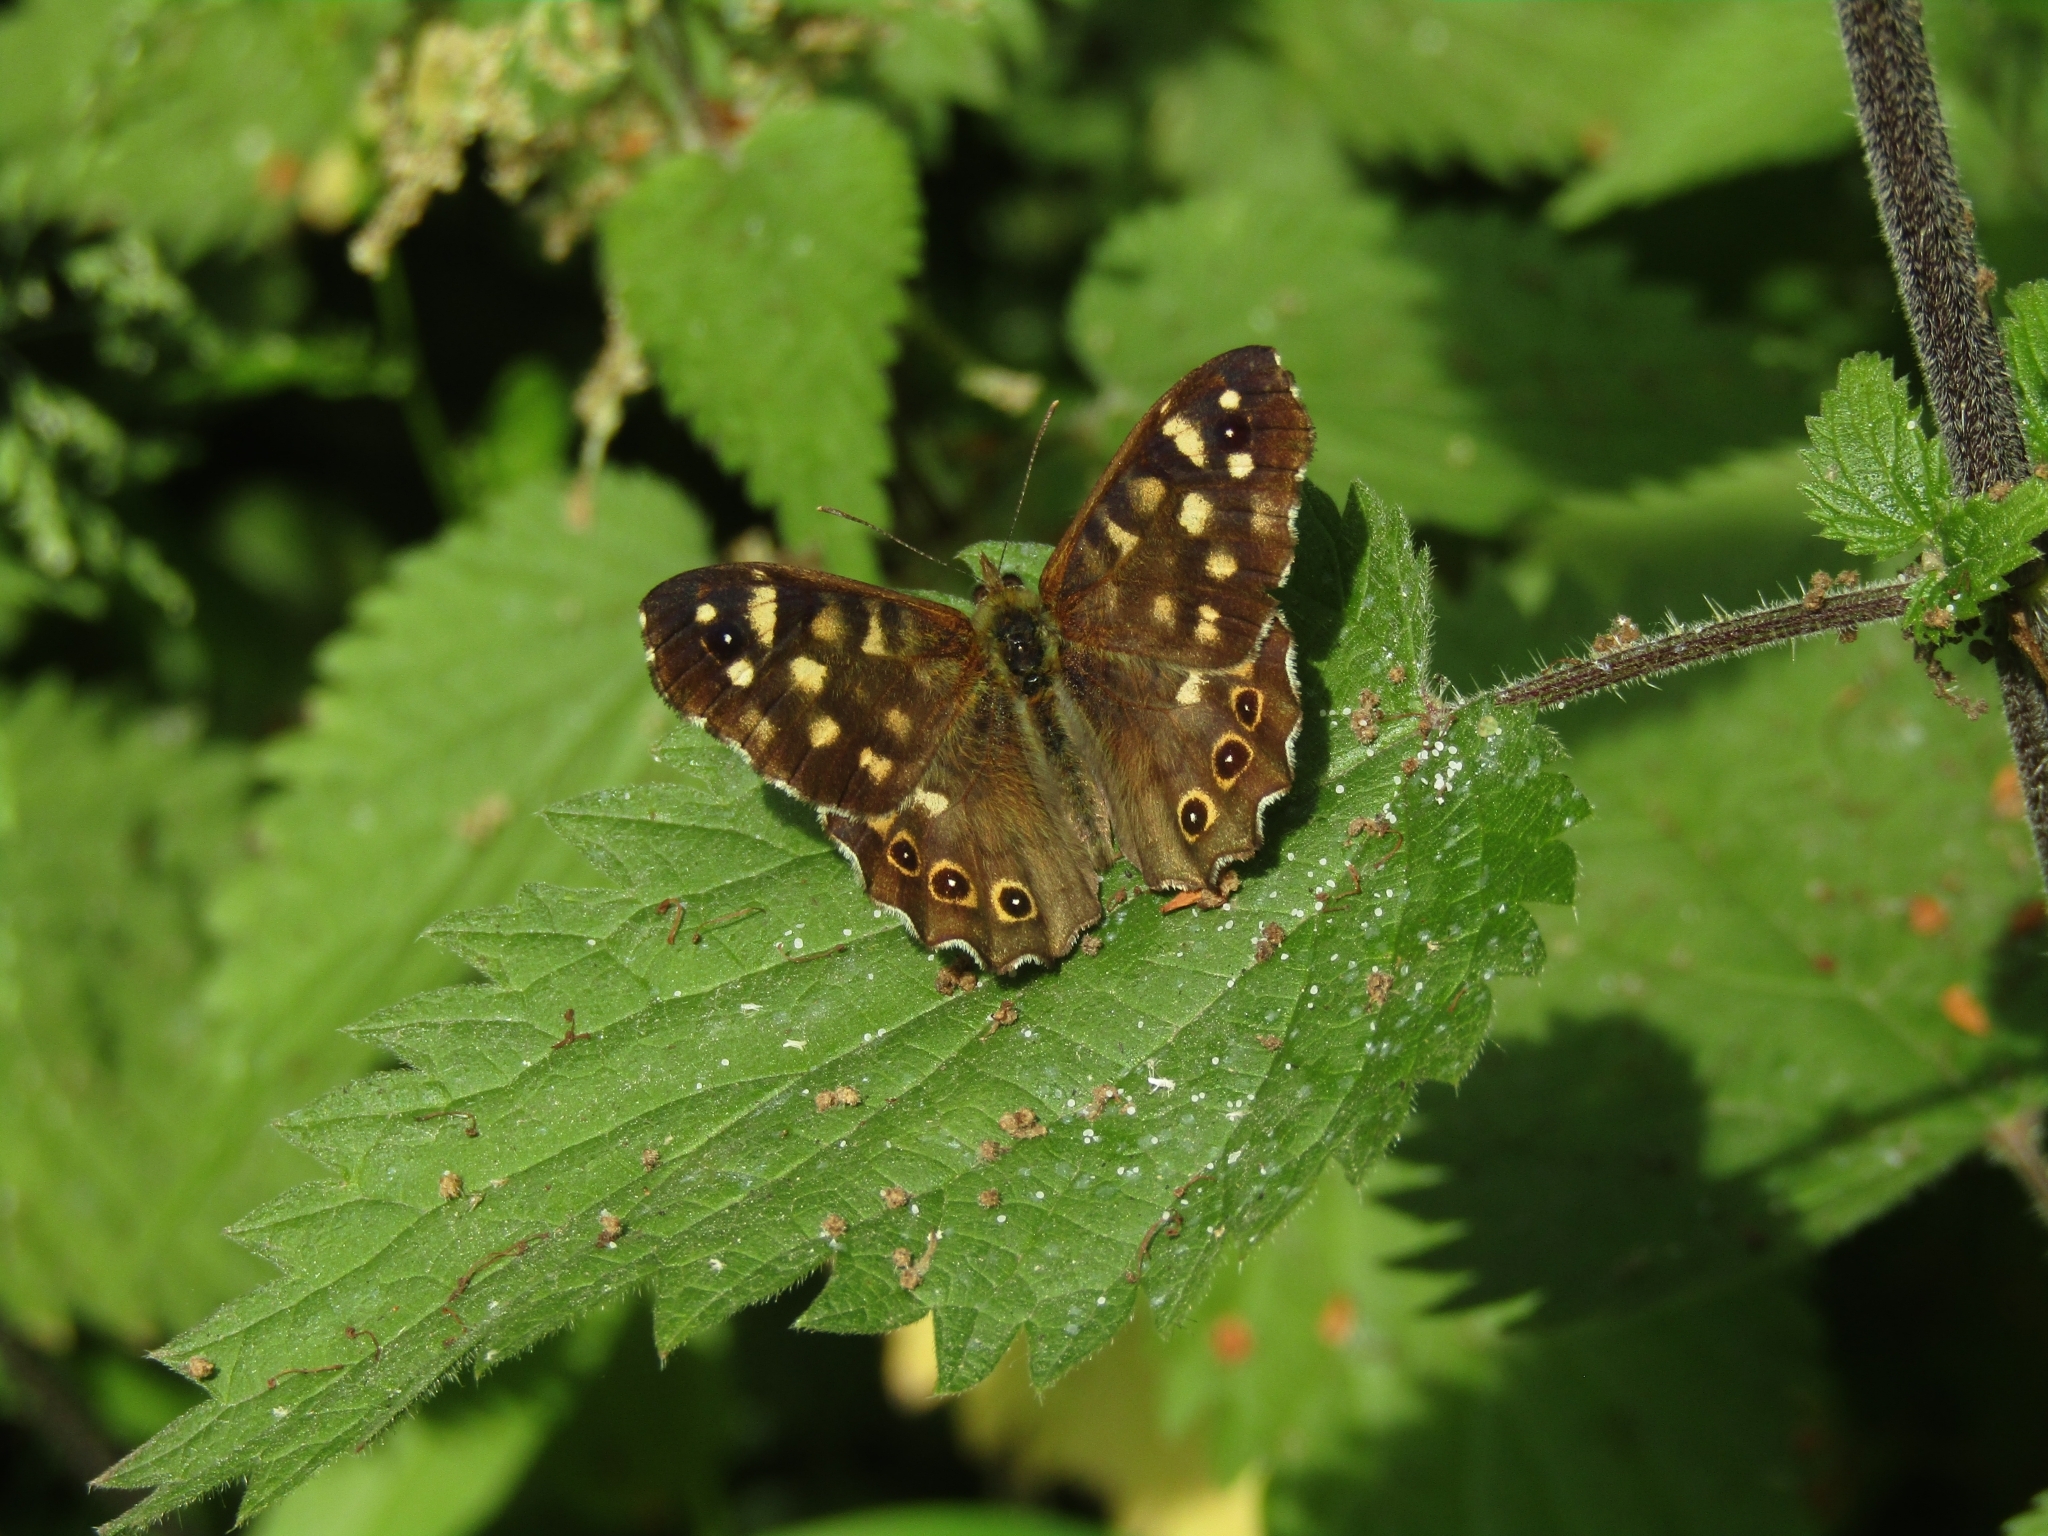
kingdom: Animalia
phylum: Arthropoda
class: Insecta
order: Lepidoptera
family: Nymphalidae
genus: Pararge
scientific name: Pararge aegeria
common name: Speckled wood
